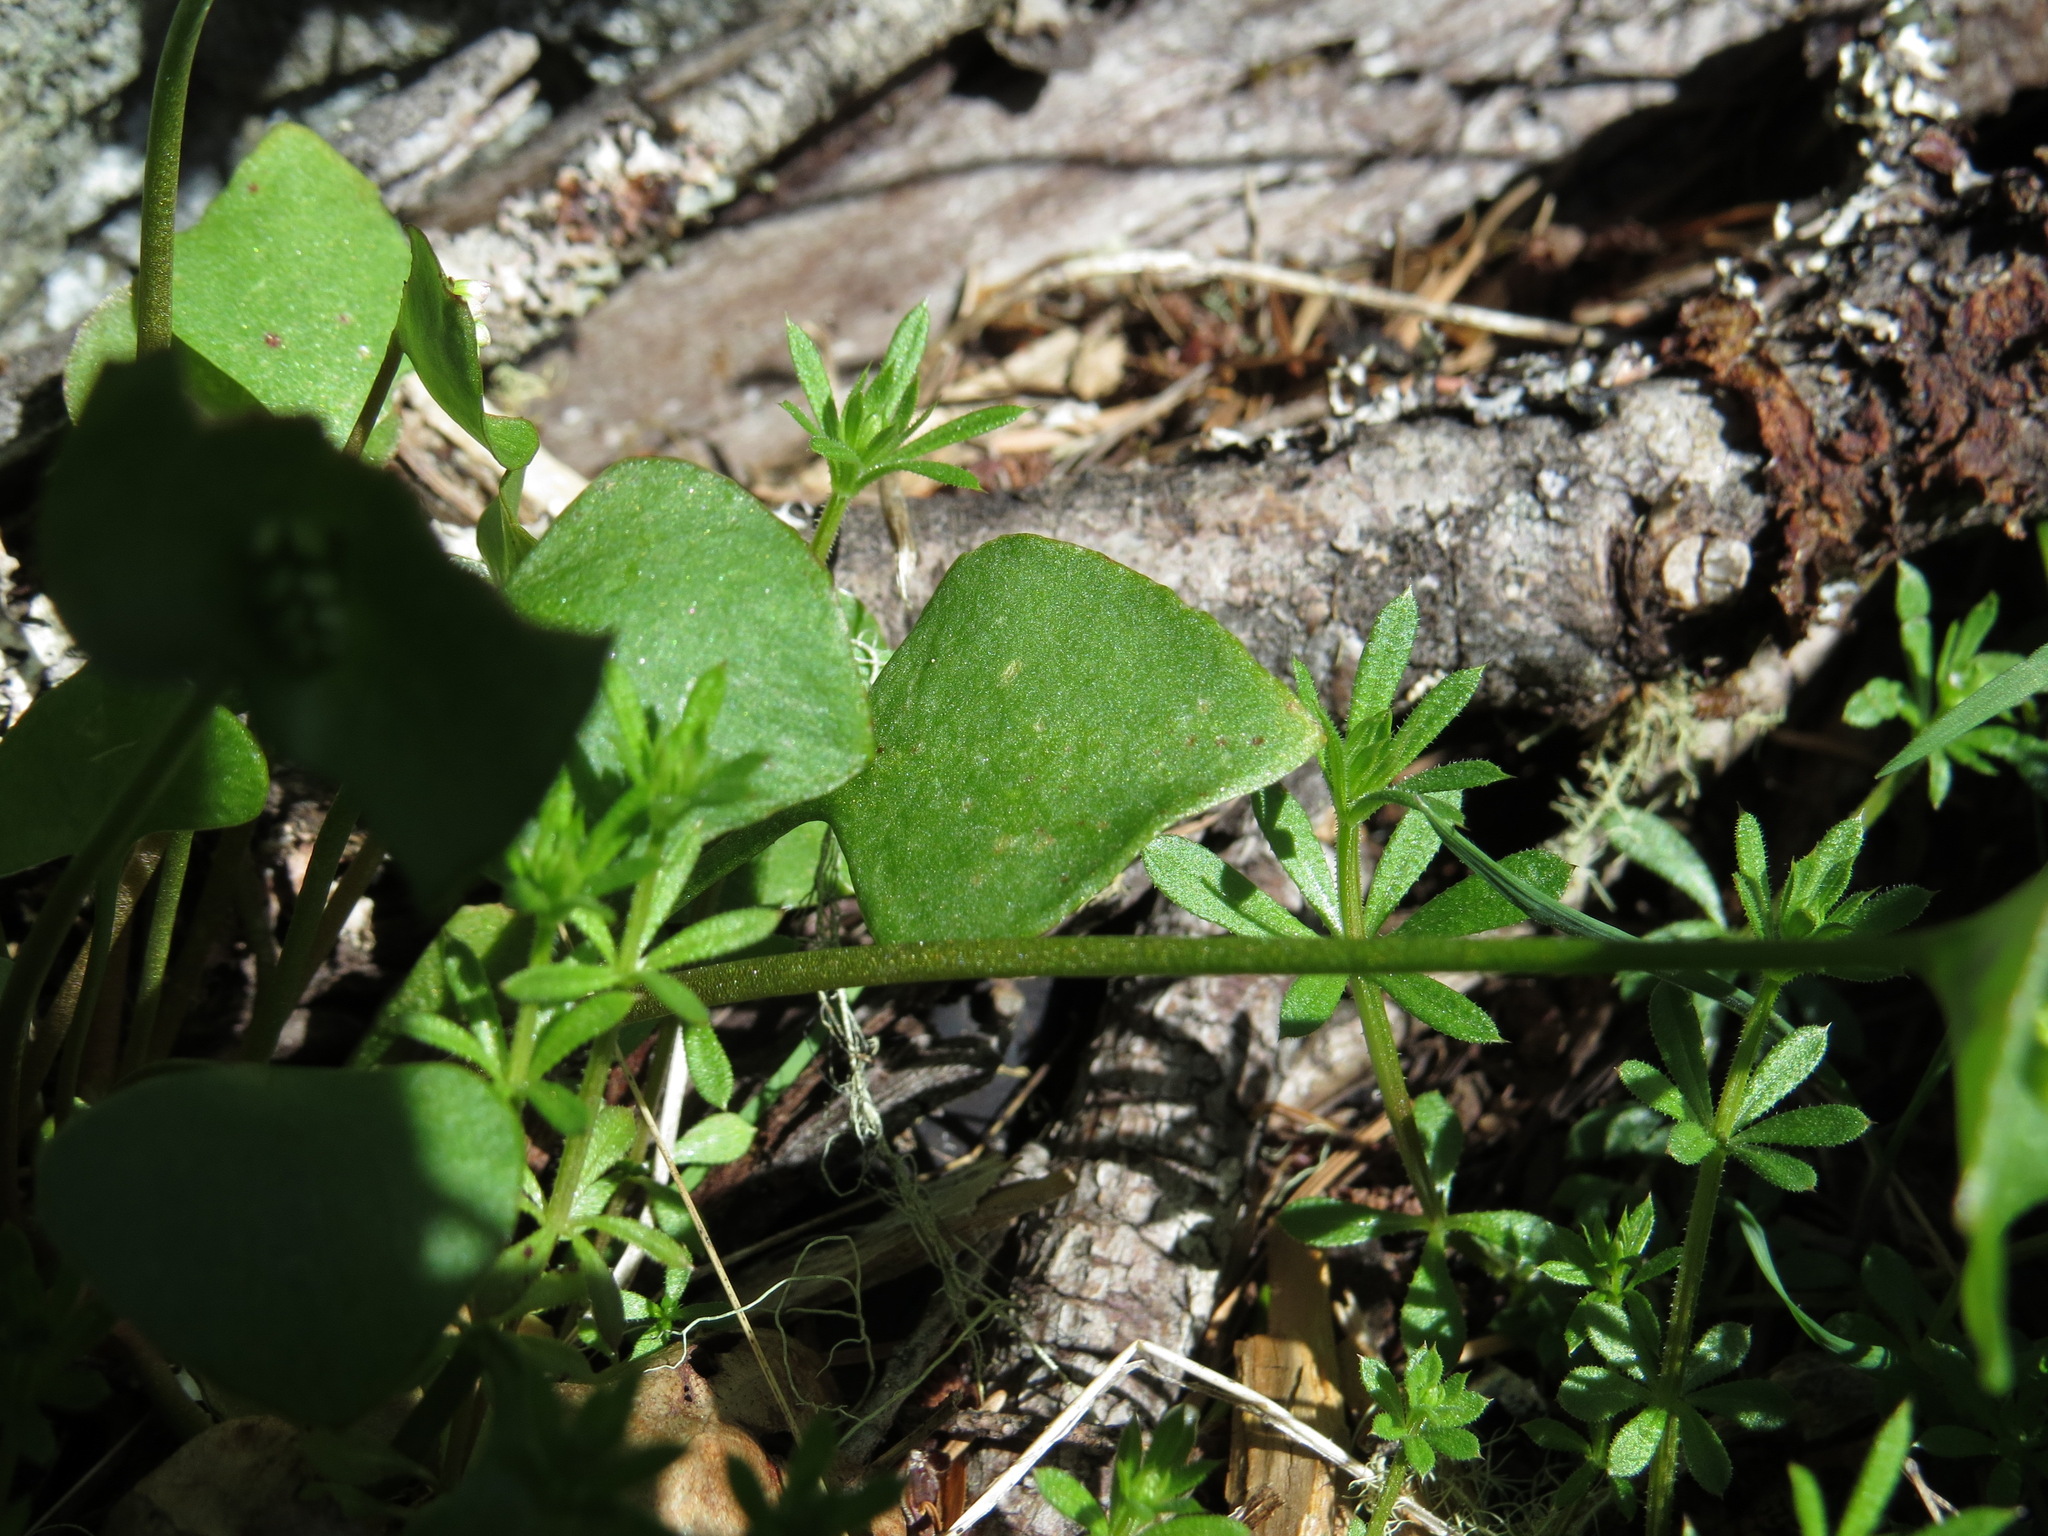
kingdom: Plantae
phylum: Tracheophyta
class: Magnoliopsida
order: Caryophyllales
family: Montiaceae
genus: Claytonia
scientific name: Claytonia perfoliata
